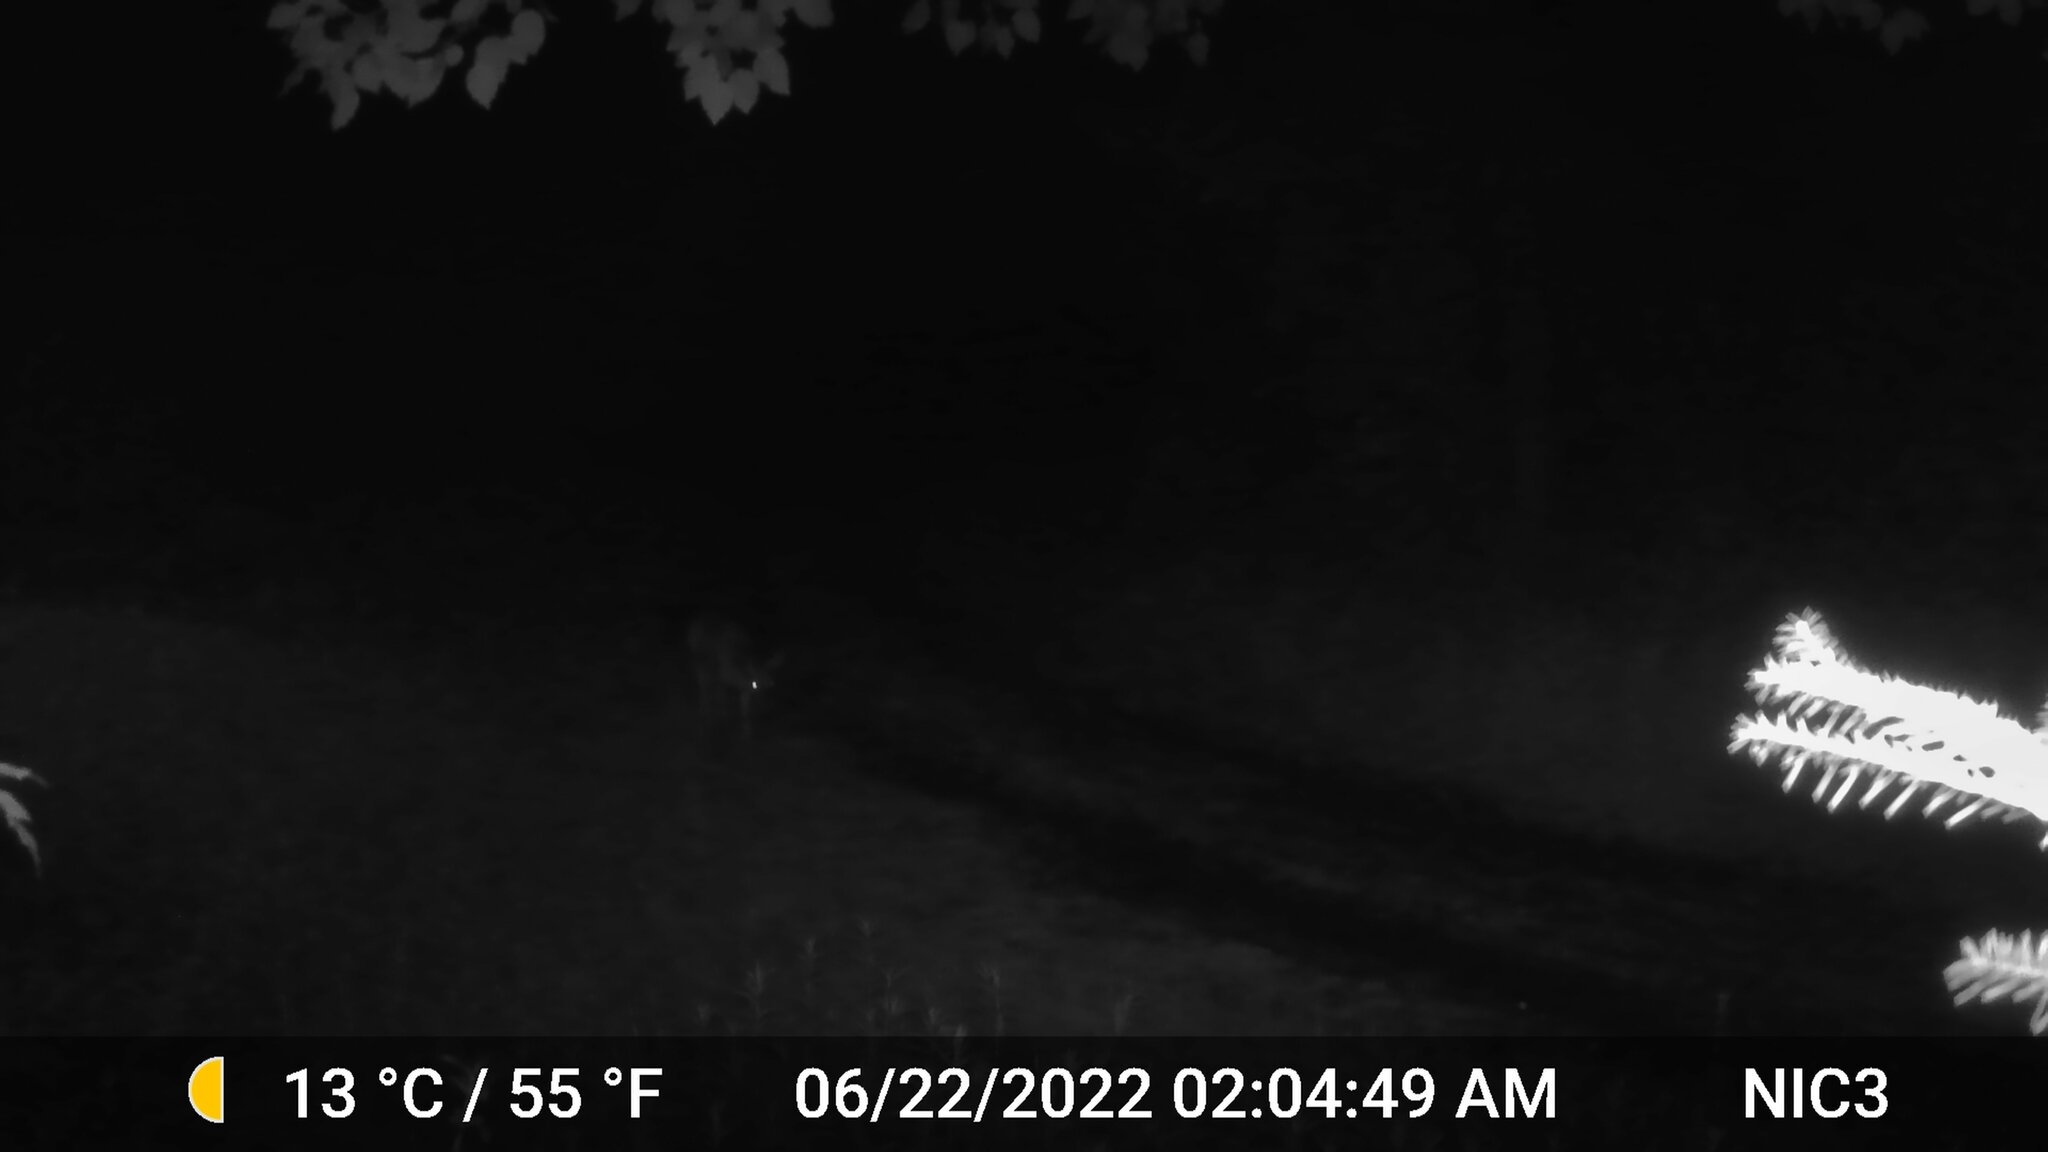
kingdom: Animalia
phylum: Chordata
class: Mammalia
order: Artiodactyla
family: Cervidae
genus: Odocoileus
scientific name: Odocoileus virginianus
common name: White-tailed deer
